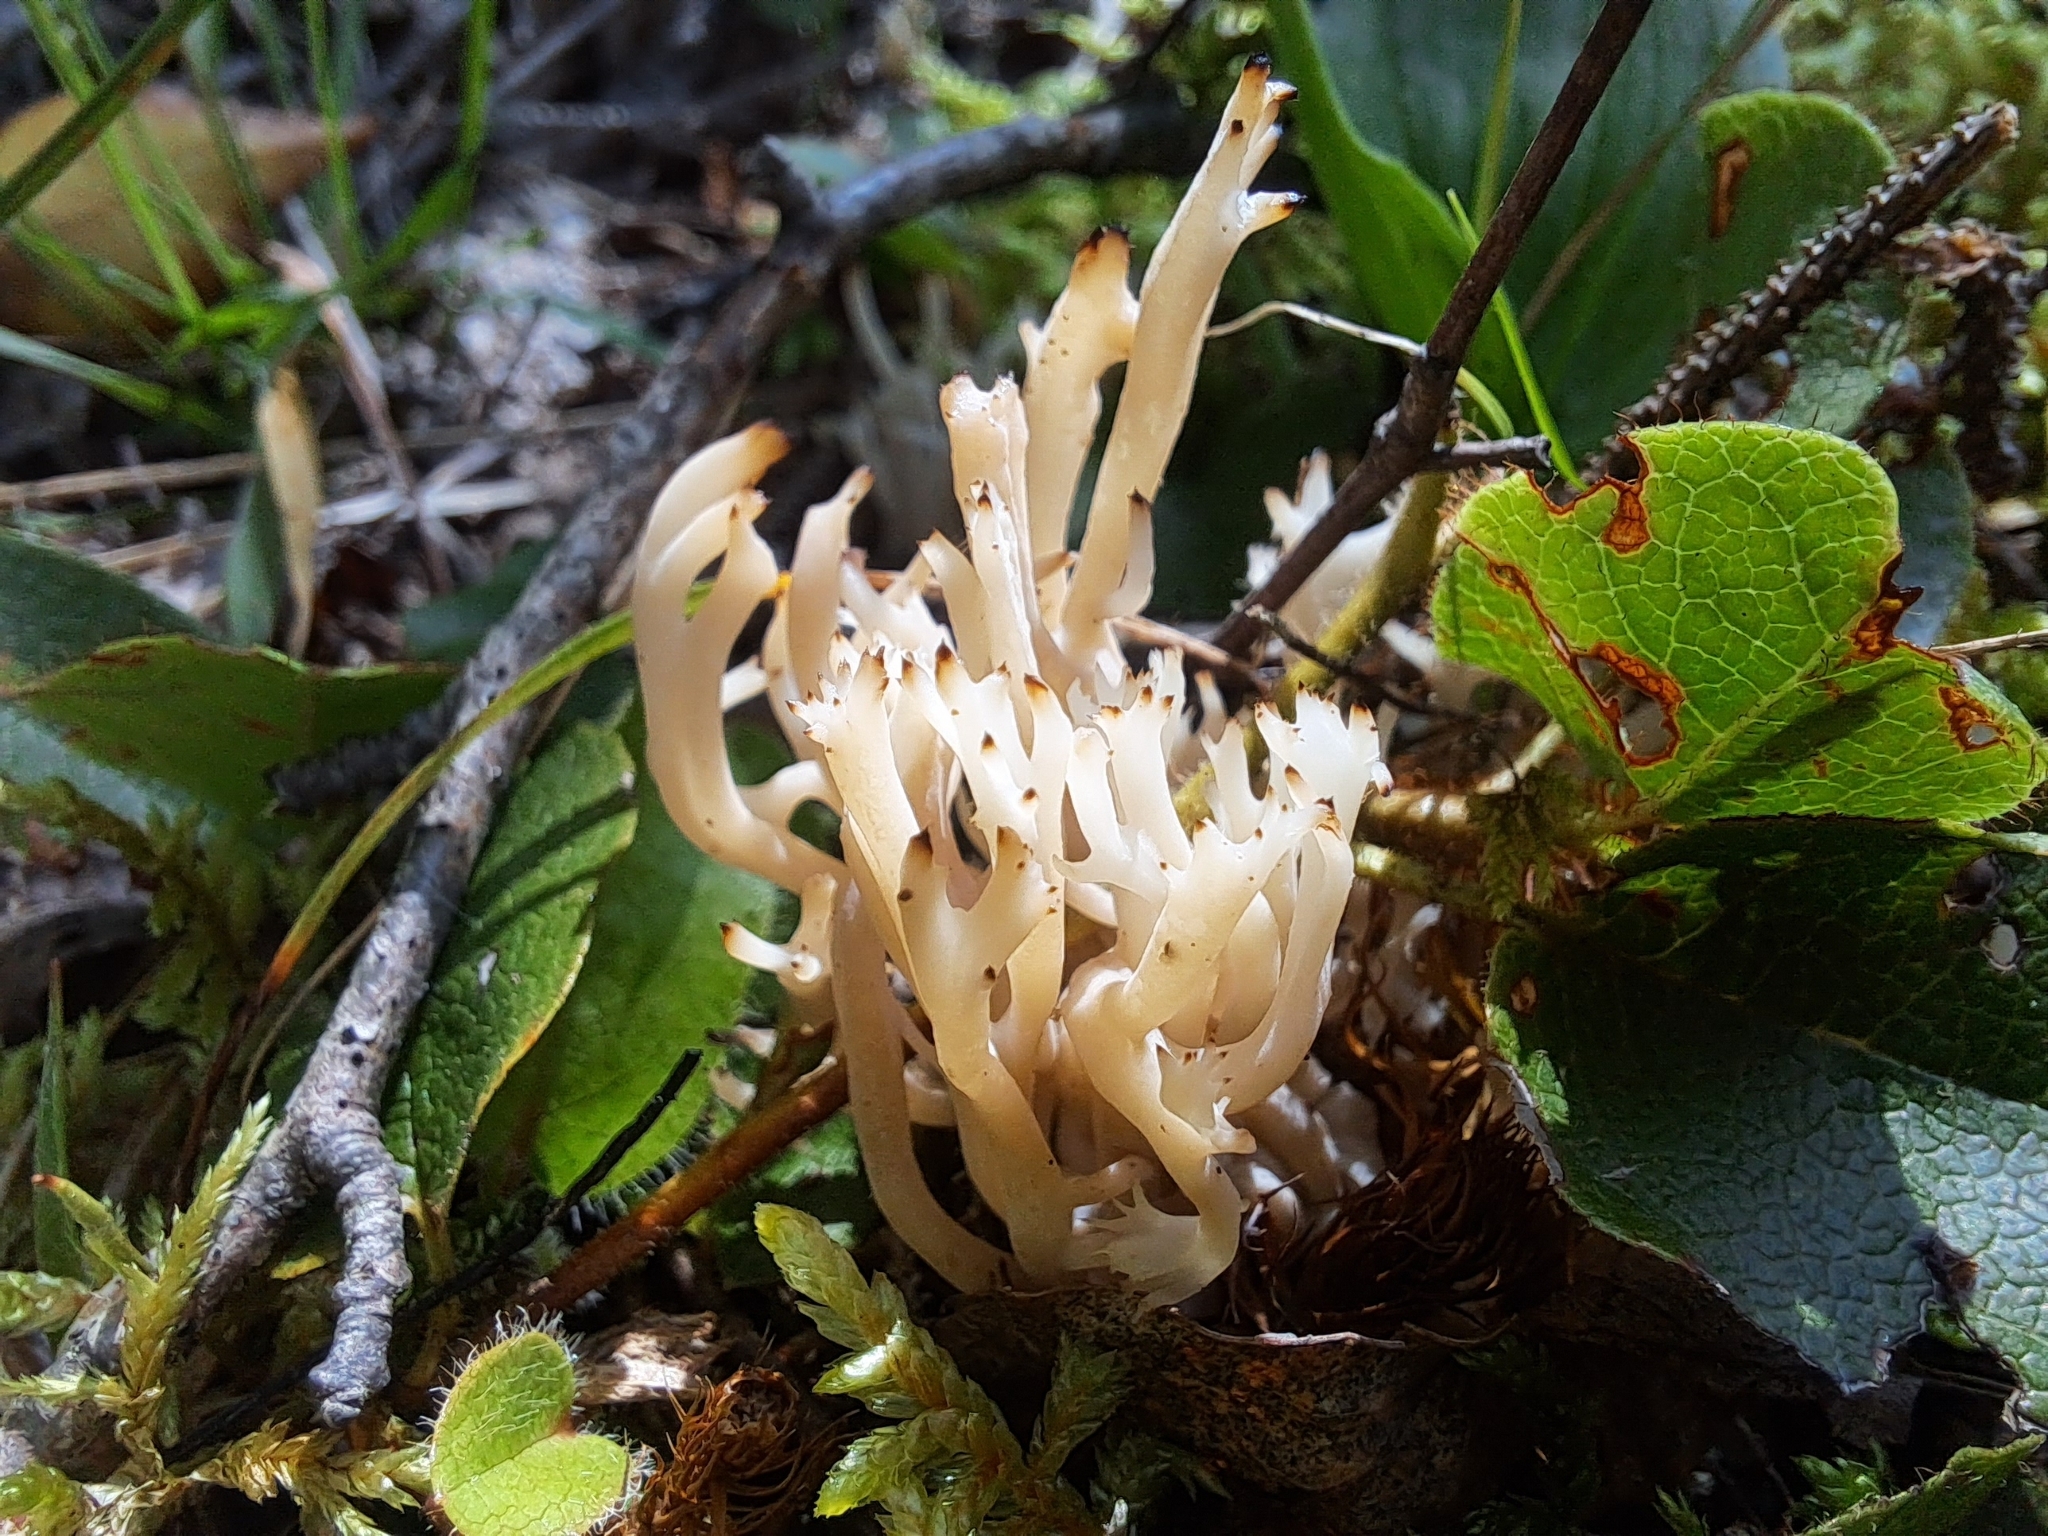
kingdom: Fungi
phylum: Basidiomycota
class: Agaricomycetes
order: Cantharellales
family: Hydnaceae
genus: Clavulina
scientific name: Clavulina coralloides
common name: Crested coral
